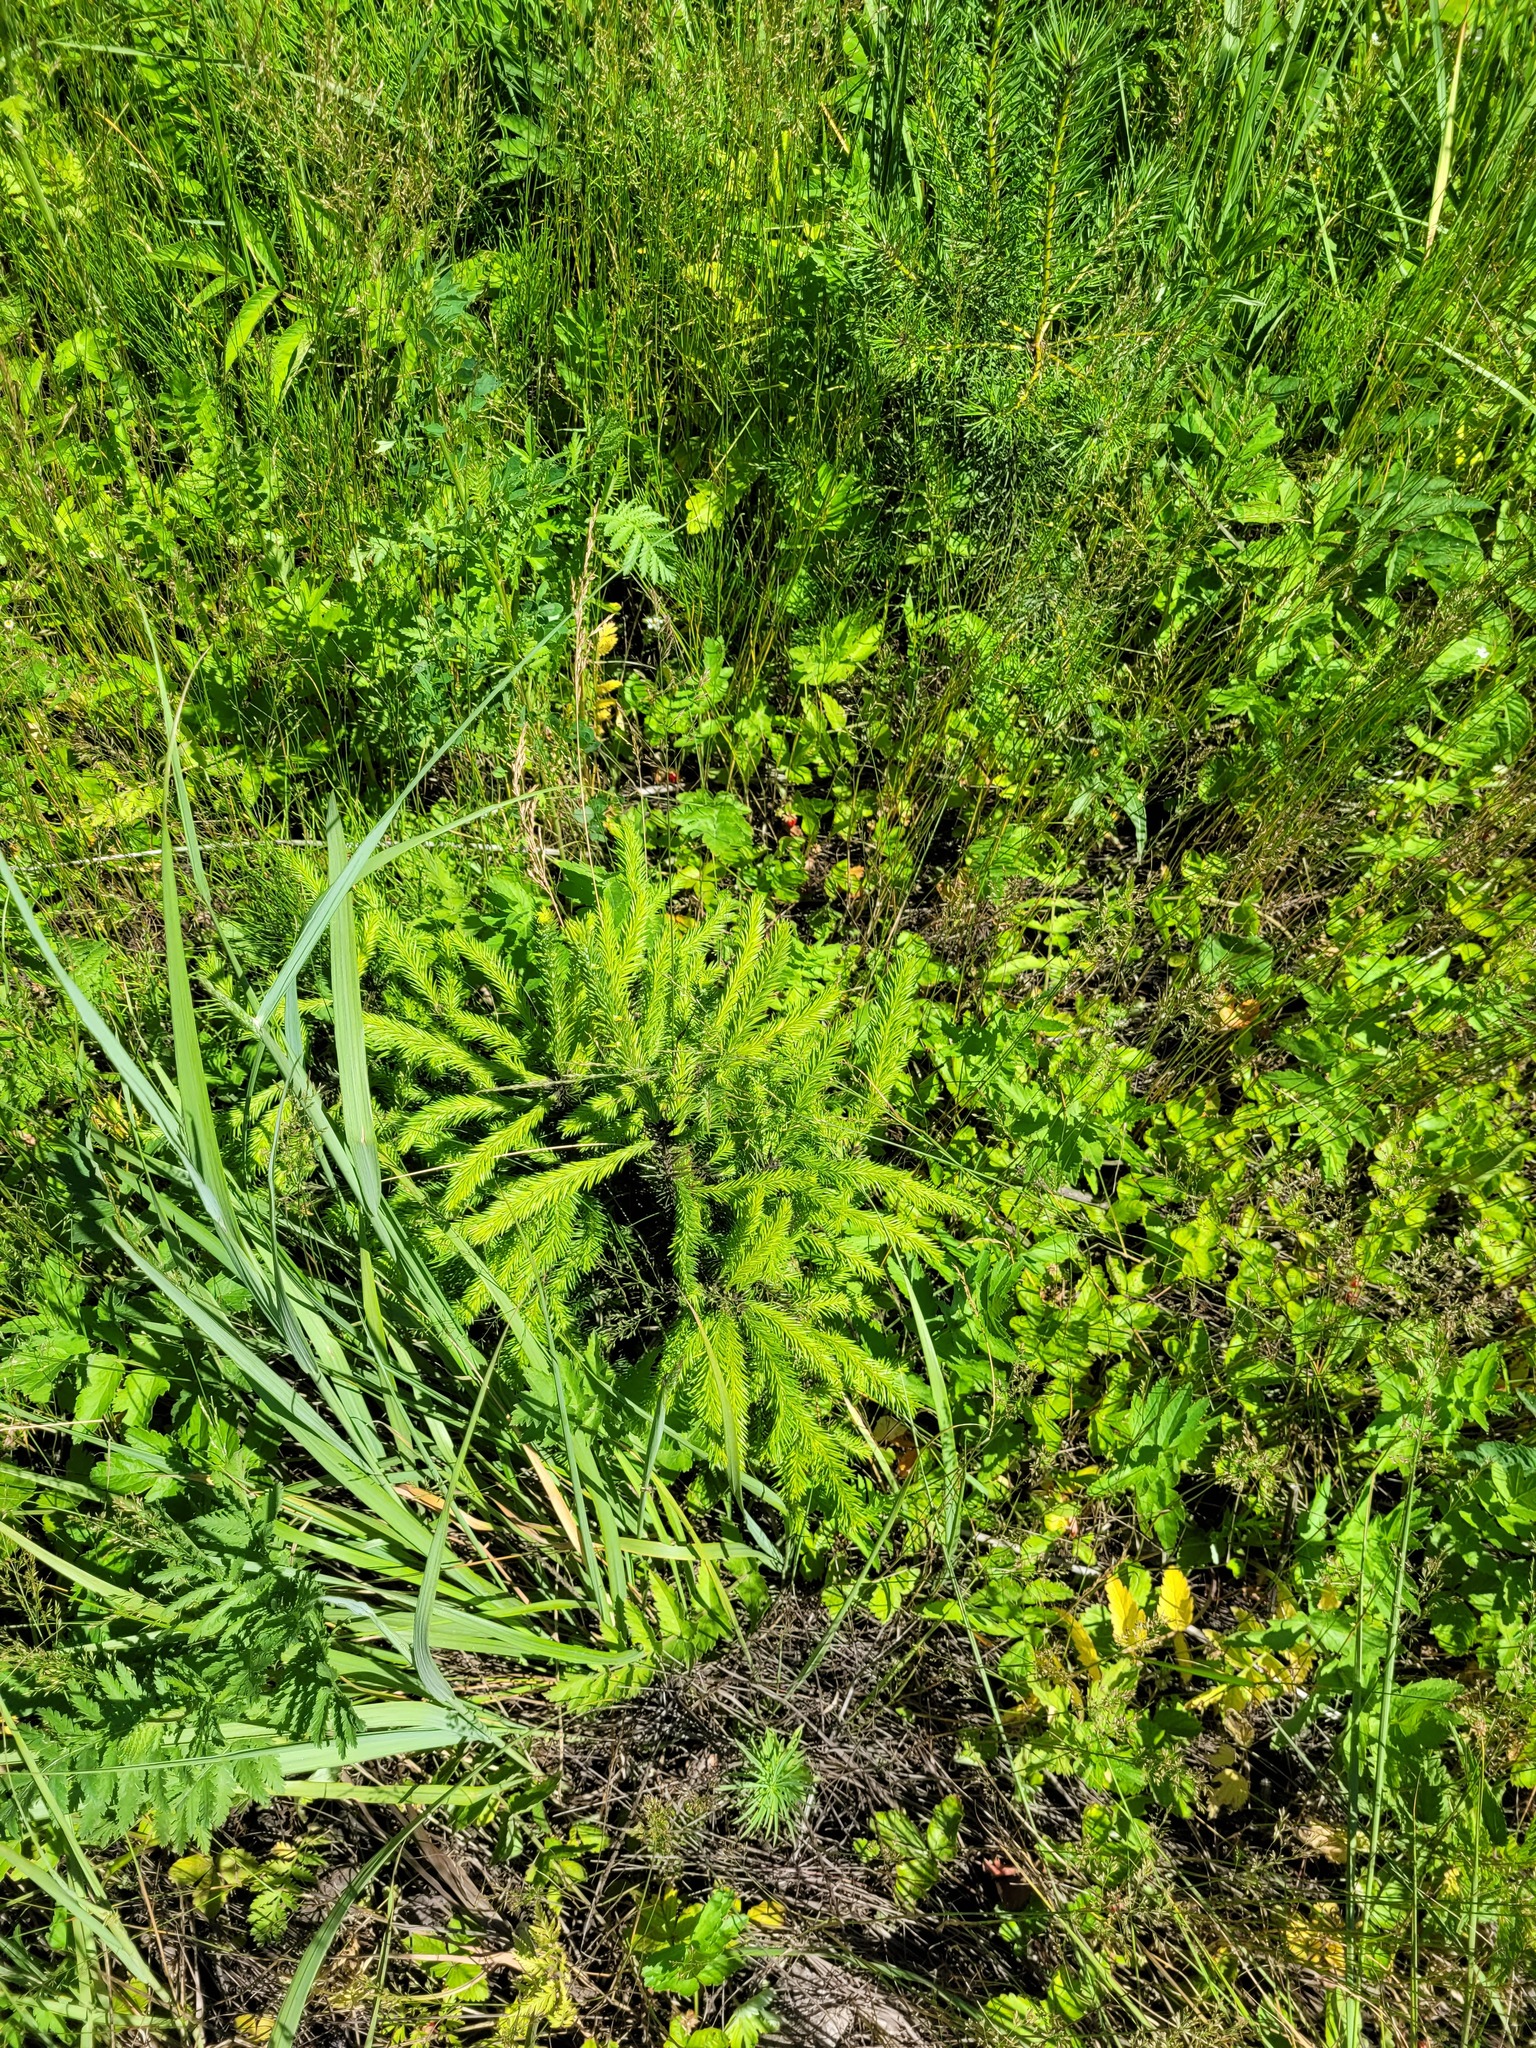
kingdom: Plantae
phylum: Tracheophyta
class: Pinopsida
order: Pinales
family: Pinaceae
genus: Picea
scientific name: Picea abies
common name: Norway spruce
